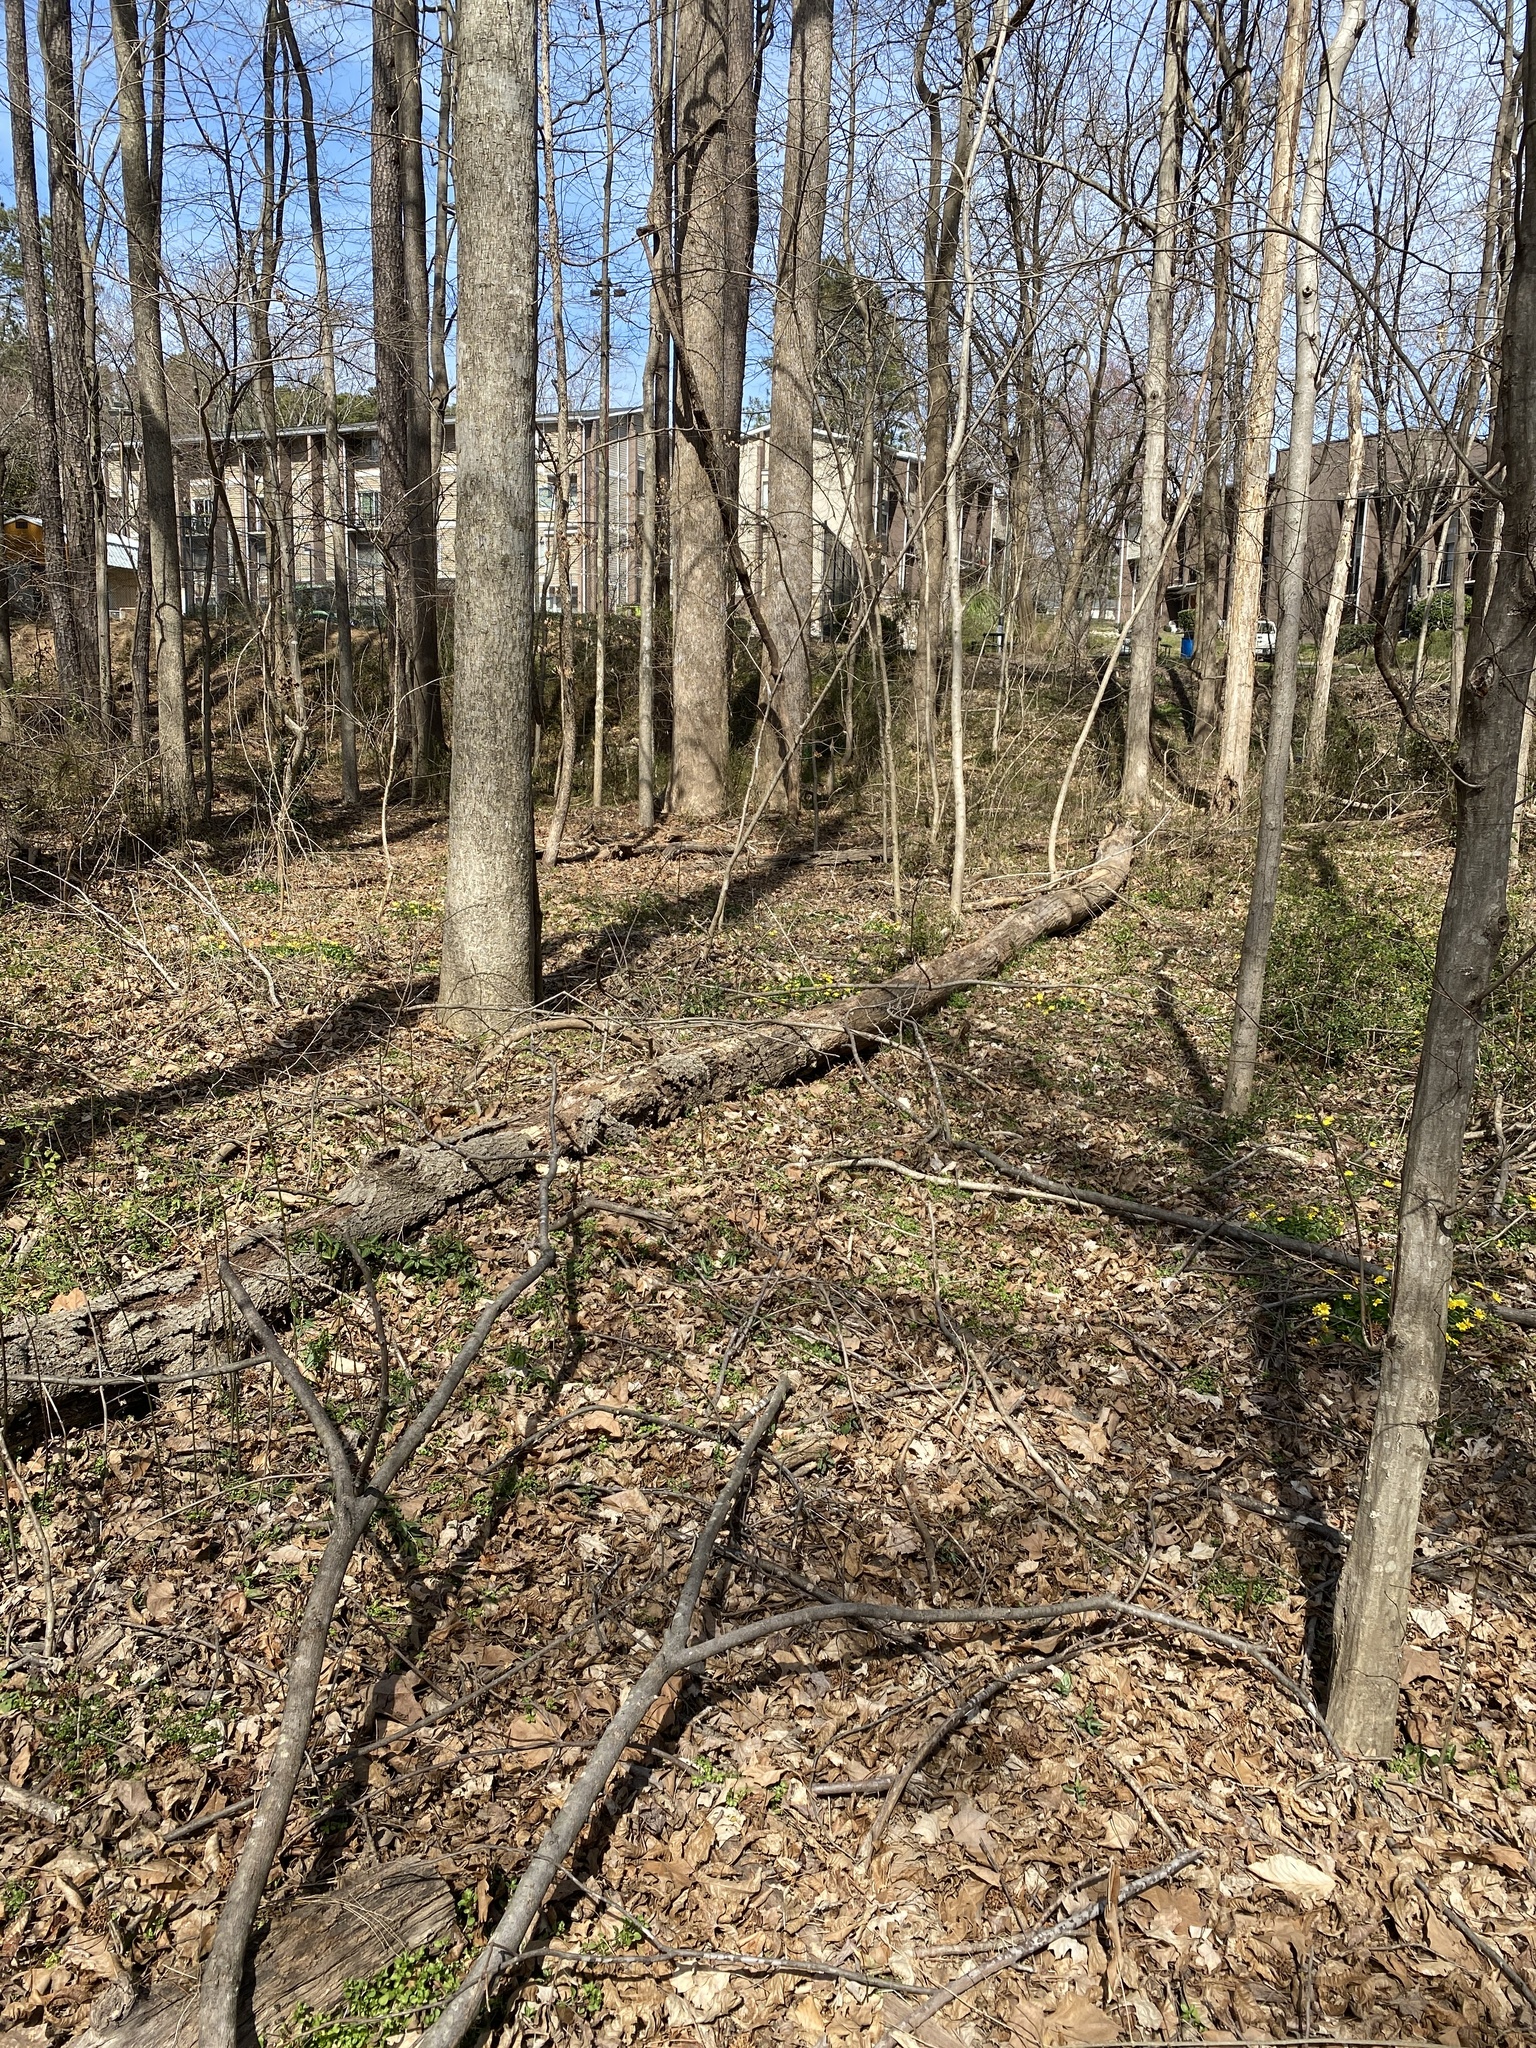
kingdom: Plantae
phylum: Tracheophyta
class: Magnoliopsida
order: Ranunculales
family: Ranunculaceae
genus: Ficaria
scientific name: Ficaria verna
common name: Lesser celandine
